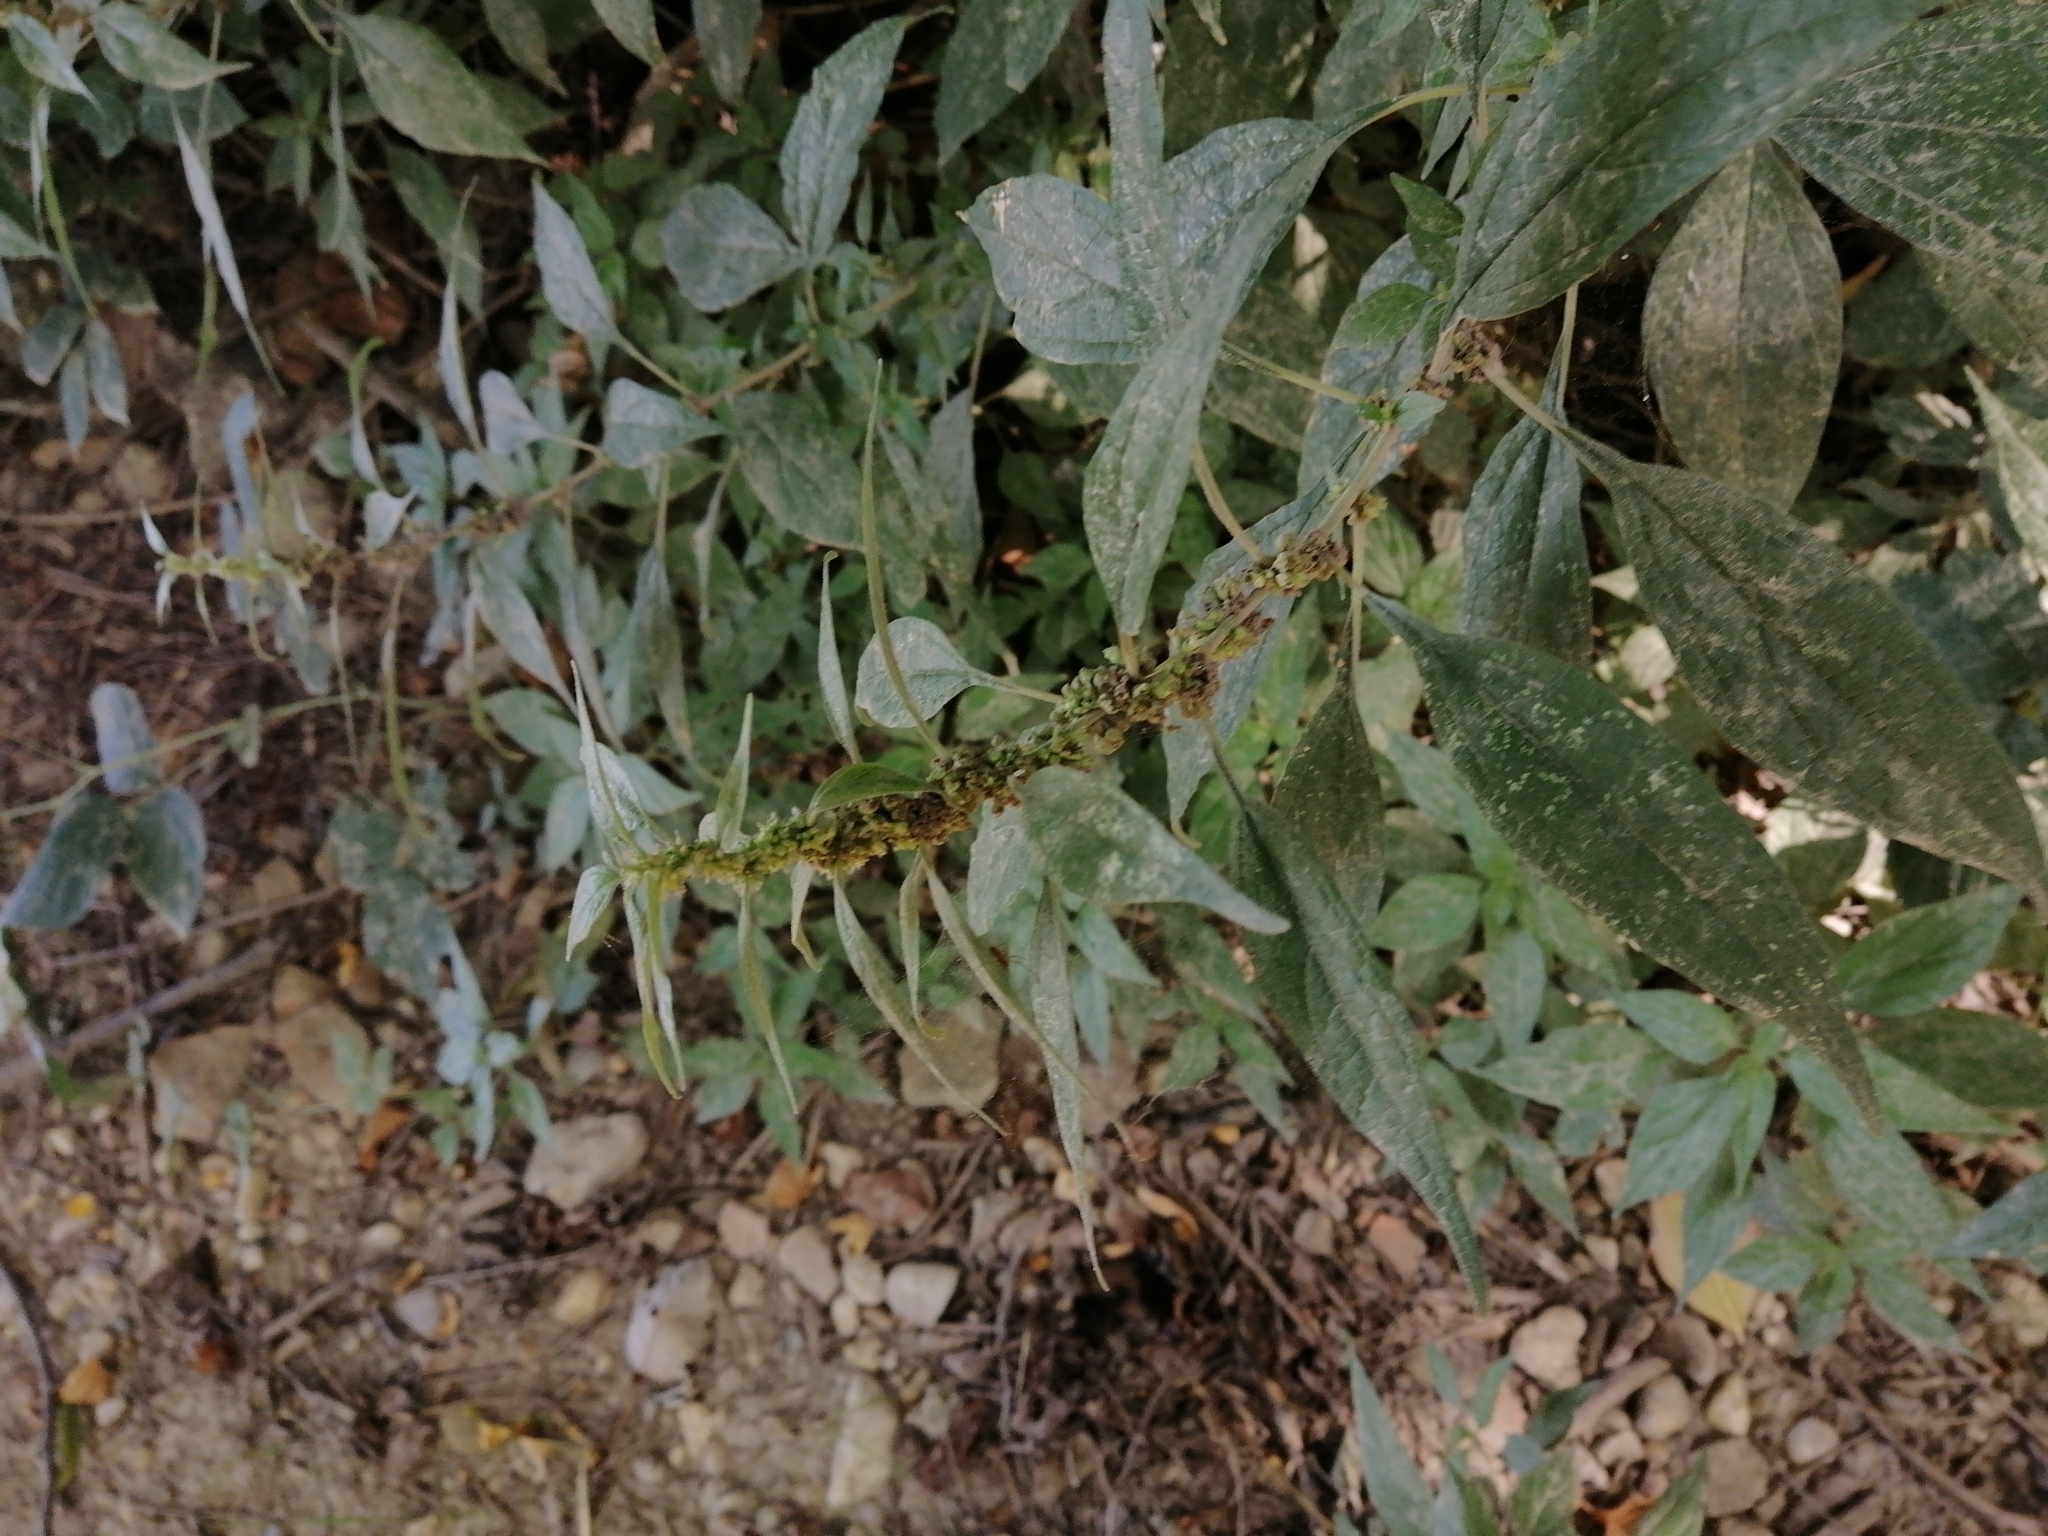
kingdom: Plantae
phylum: Tracheophyta
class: Magnoliopsida
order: Rosales
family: Urticaceae
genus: Parietaria
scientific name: Parietaria officinalis
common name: Eastern pellitory-of-the-wall
